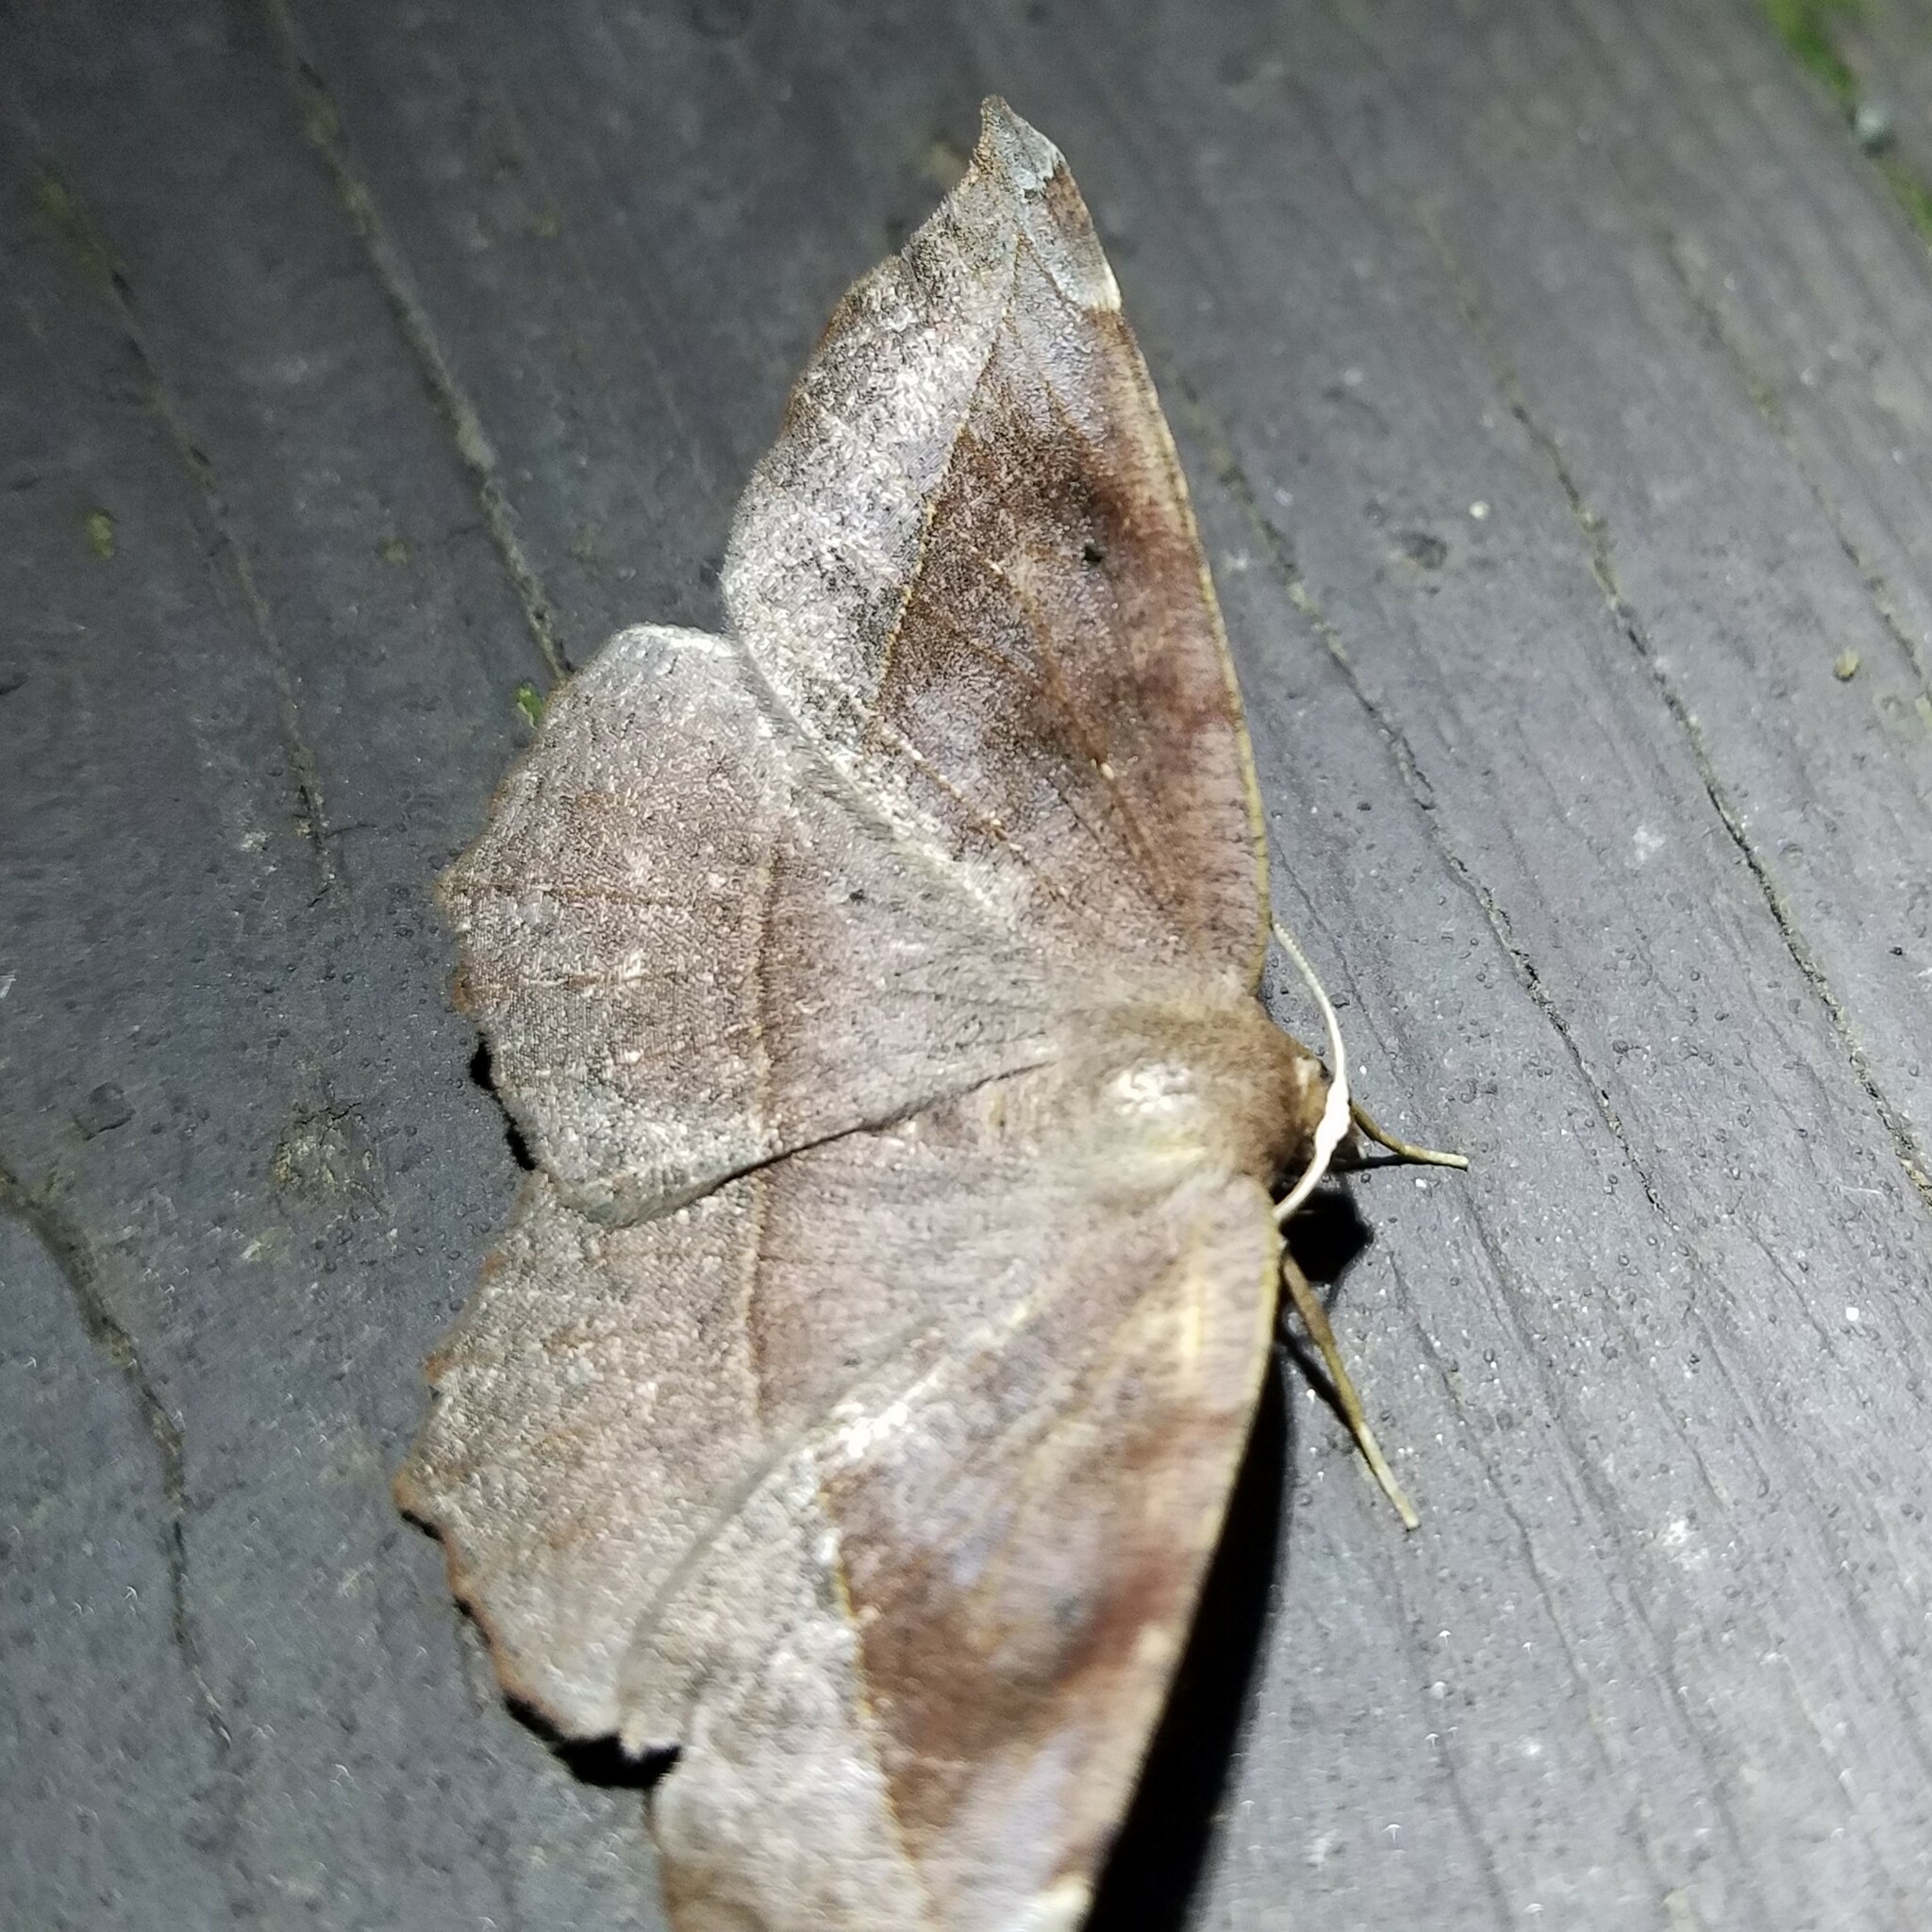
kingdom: Animalia
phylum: Arthropoda
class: Insecta
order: Lepidoptera
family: Geometridae
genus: Eutrapela
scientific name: Eutrapela clemataria
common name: Curved-toothed geometer
